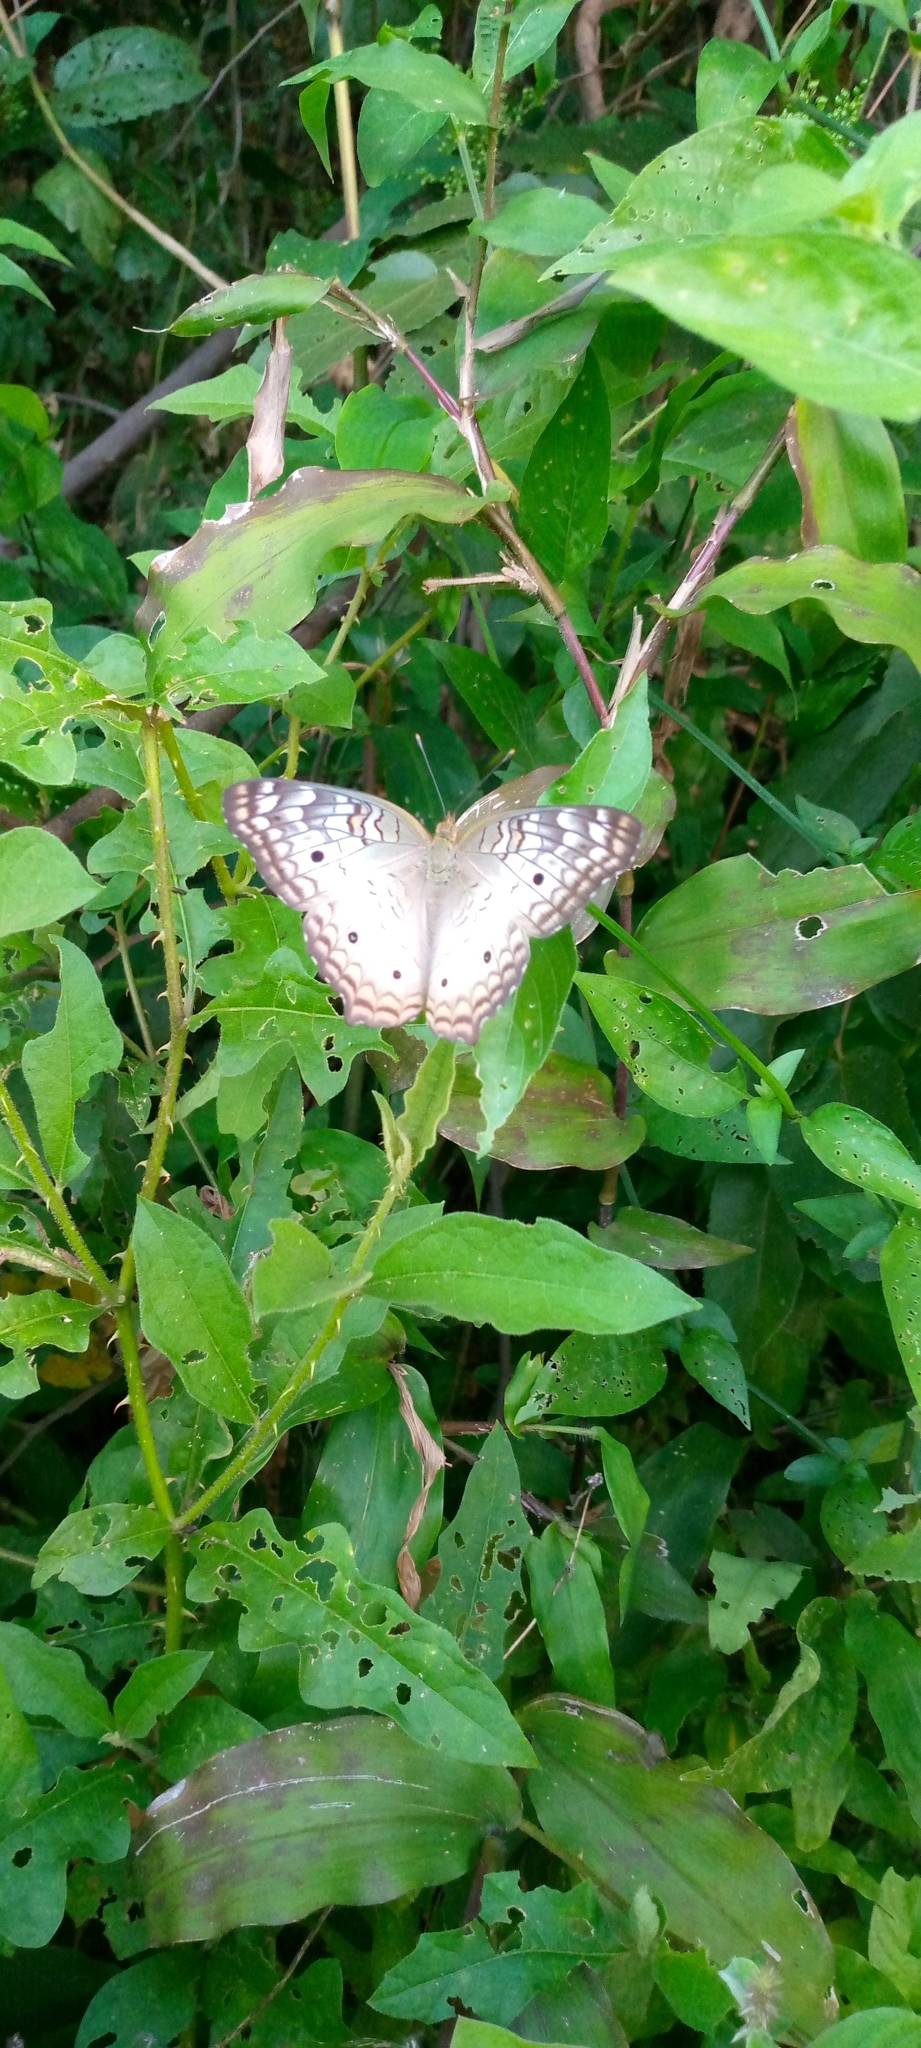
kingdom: Animalia
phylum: Arthropoda
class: Insecta
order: Lepidoptera
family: Nymphalidae
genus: Anartia
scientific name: Anartia jatrophae
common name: White peacock
